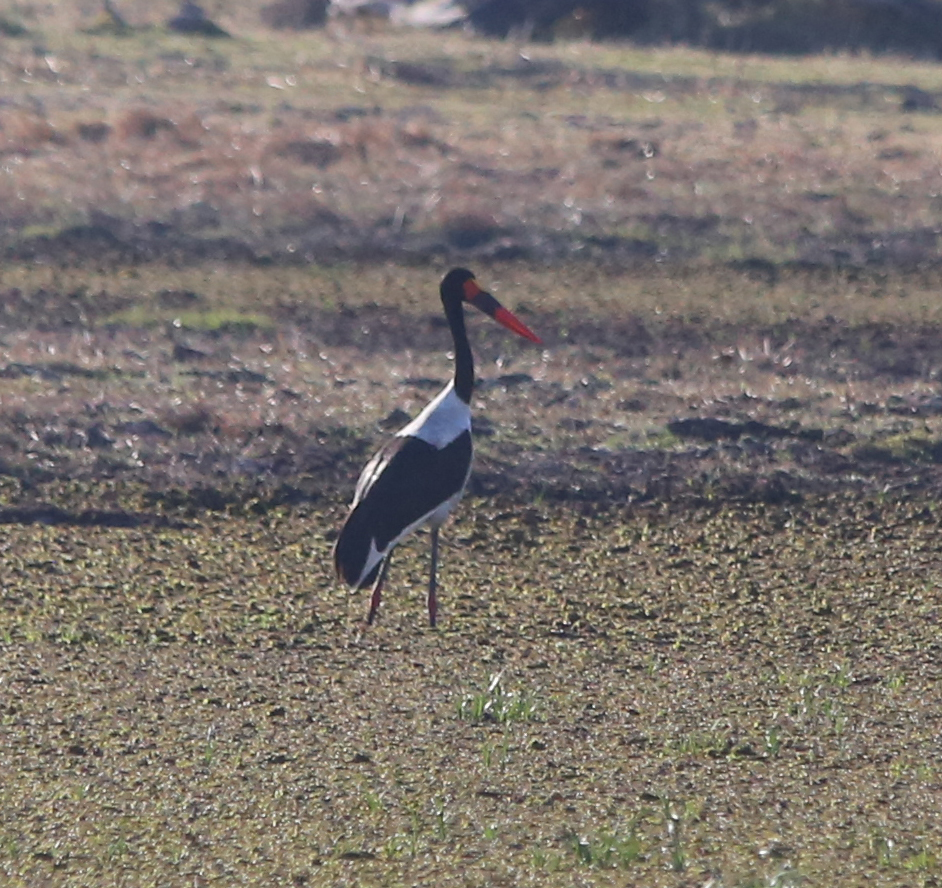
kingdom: Animalia
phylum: Chordata
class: Aves
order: Ciconiiformes
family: Ciconiidae
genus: Ephippiorhynchus
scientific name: Ephippiorhynchus senegalensis
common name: Saddle-billed stork
